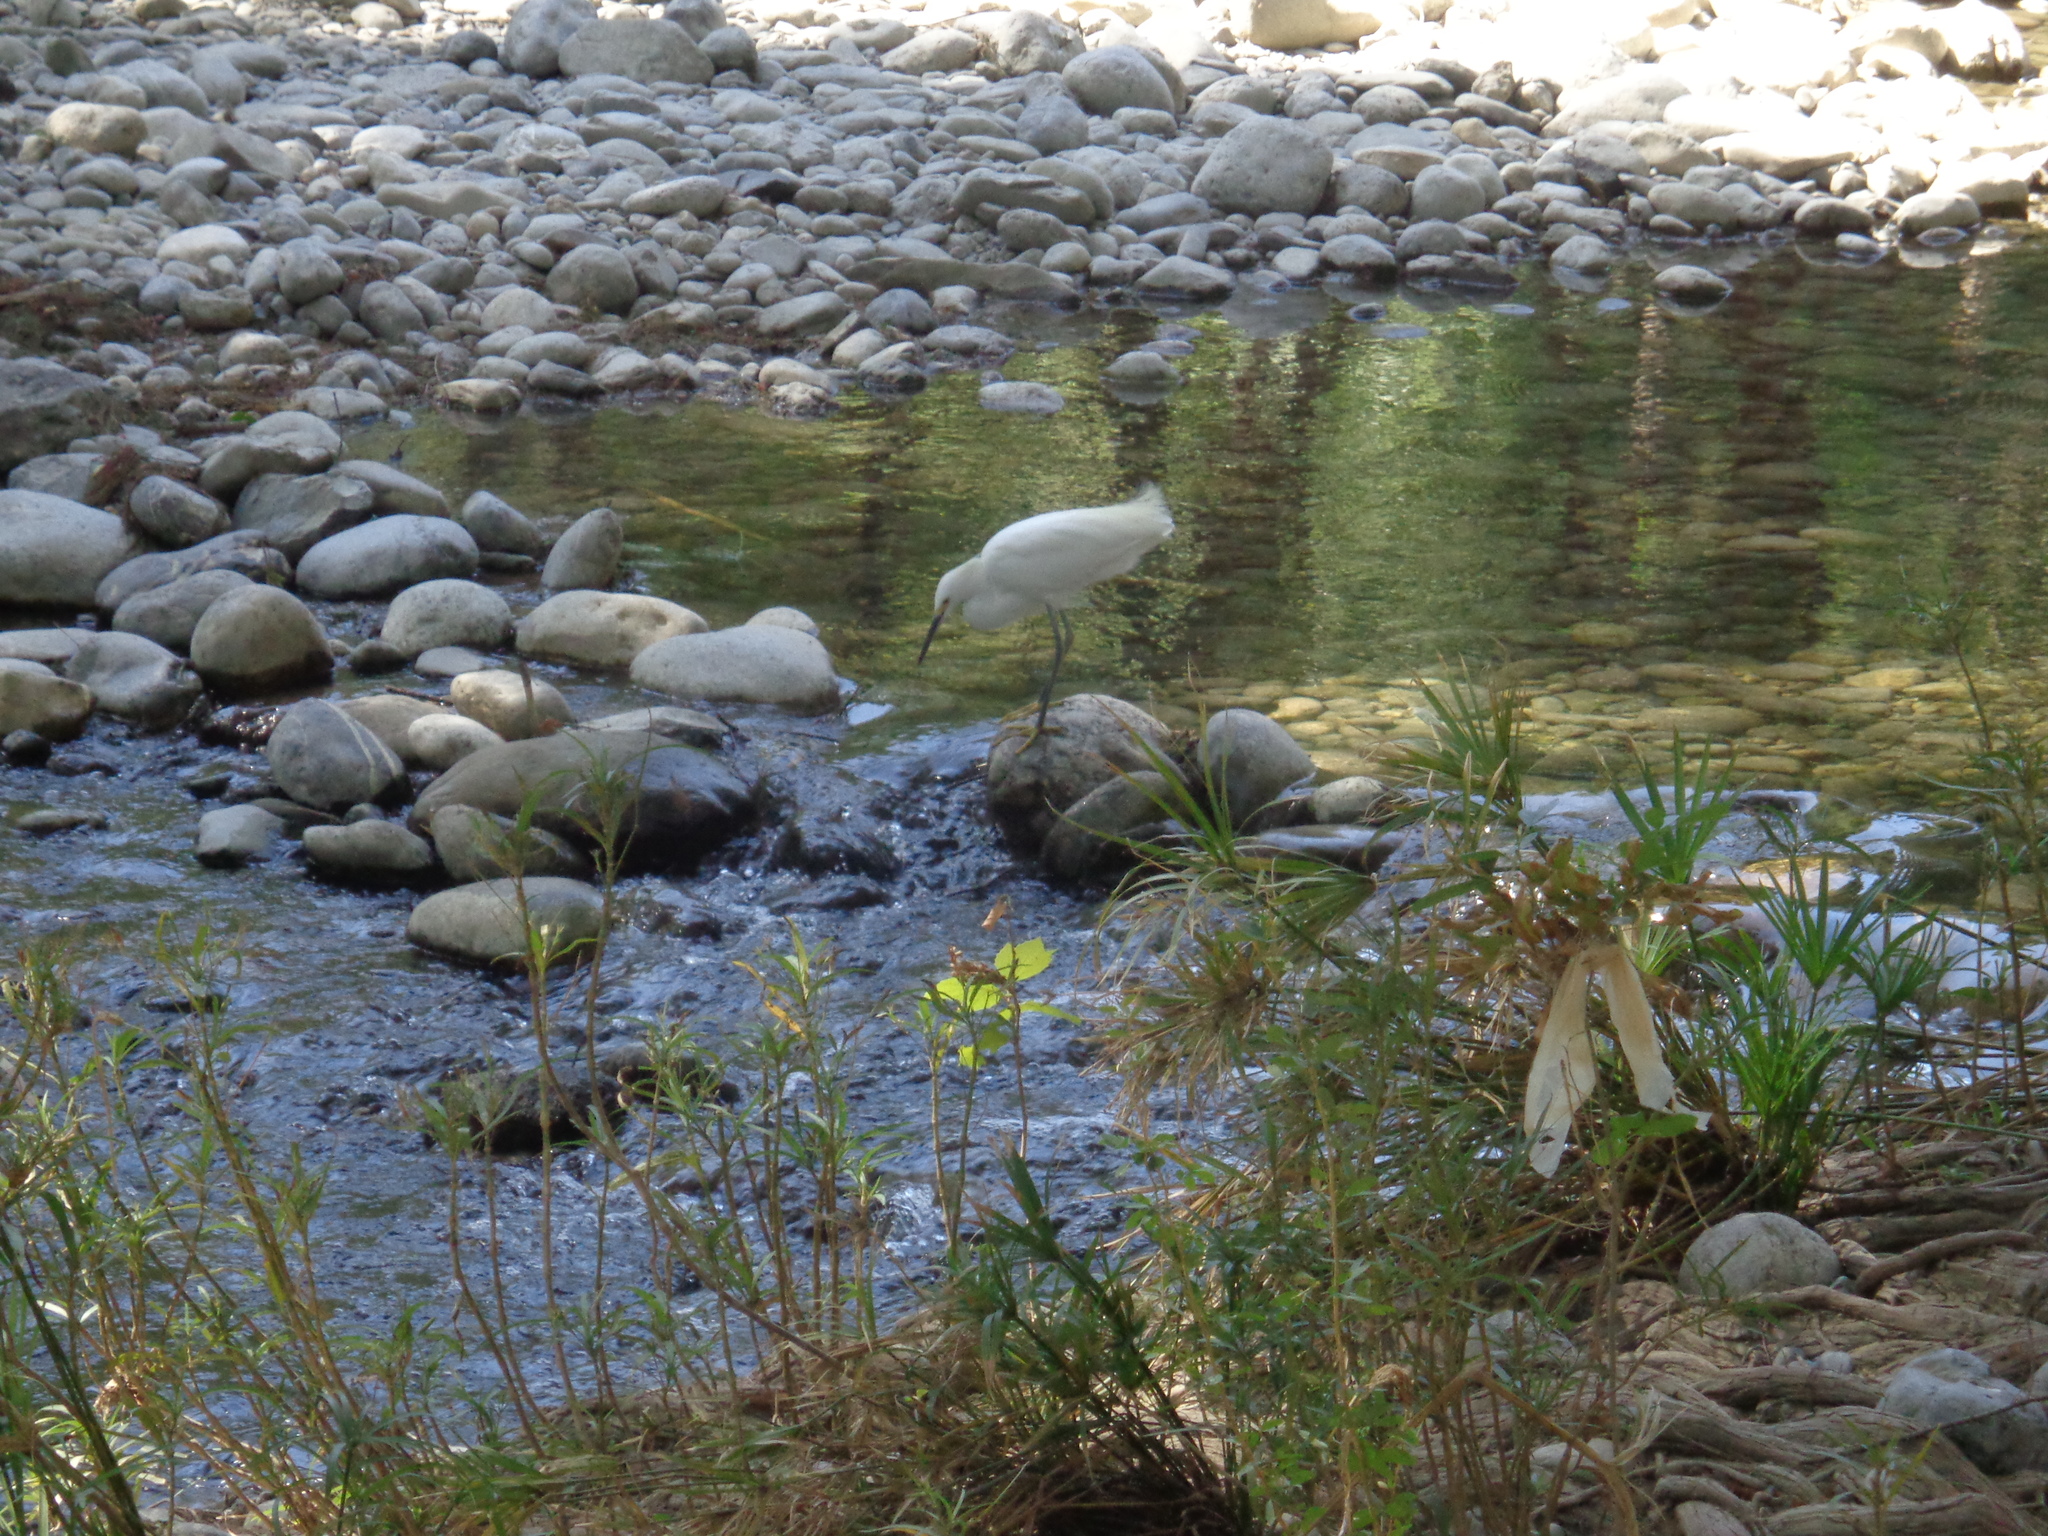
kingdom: Animalia
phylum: Chordata
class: Aves
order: Pelecaniformes
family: Ardeidae
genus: Egretta
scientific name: Egretta thula
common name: Snowy egret
